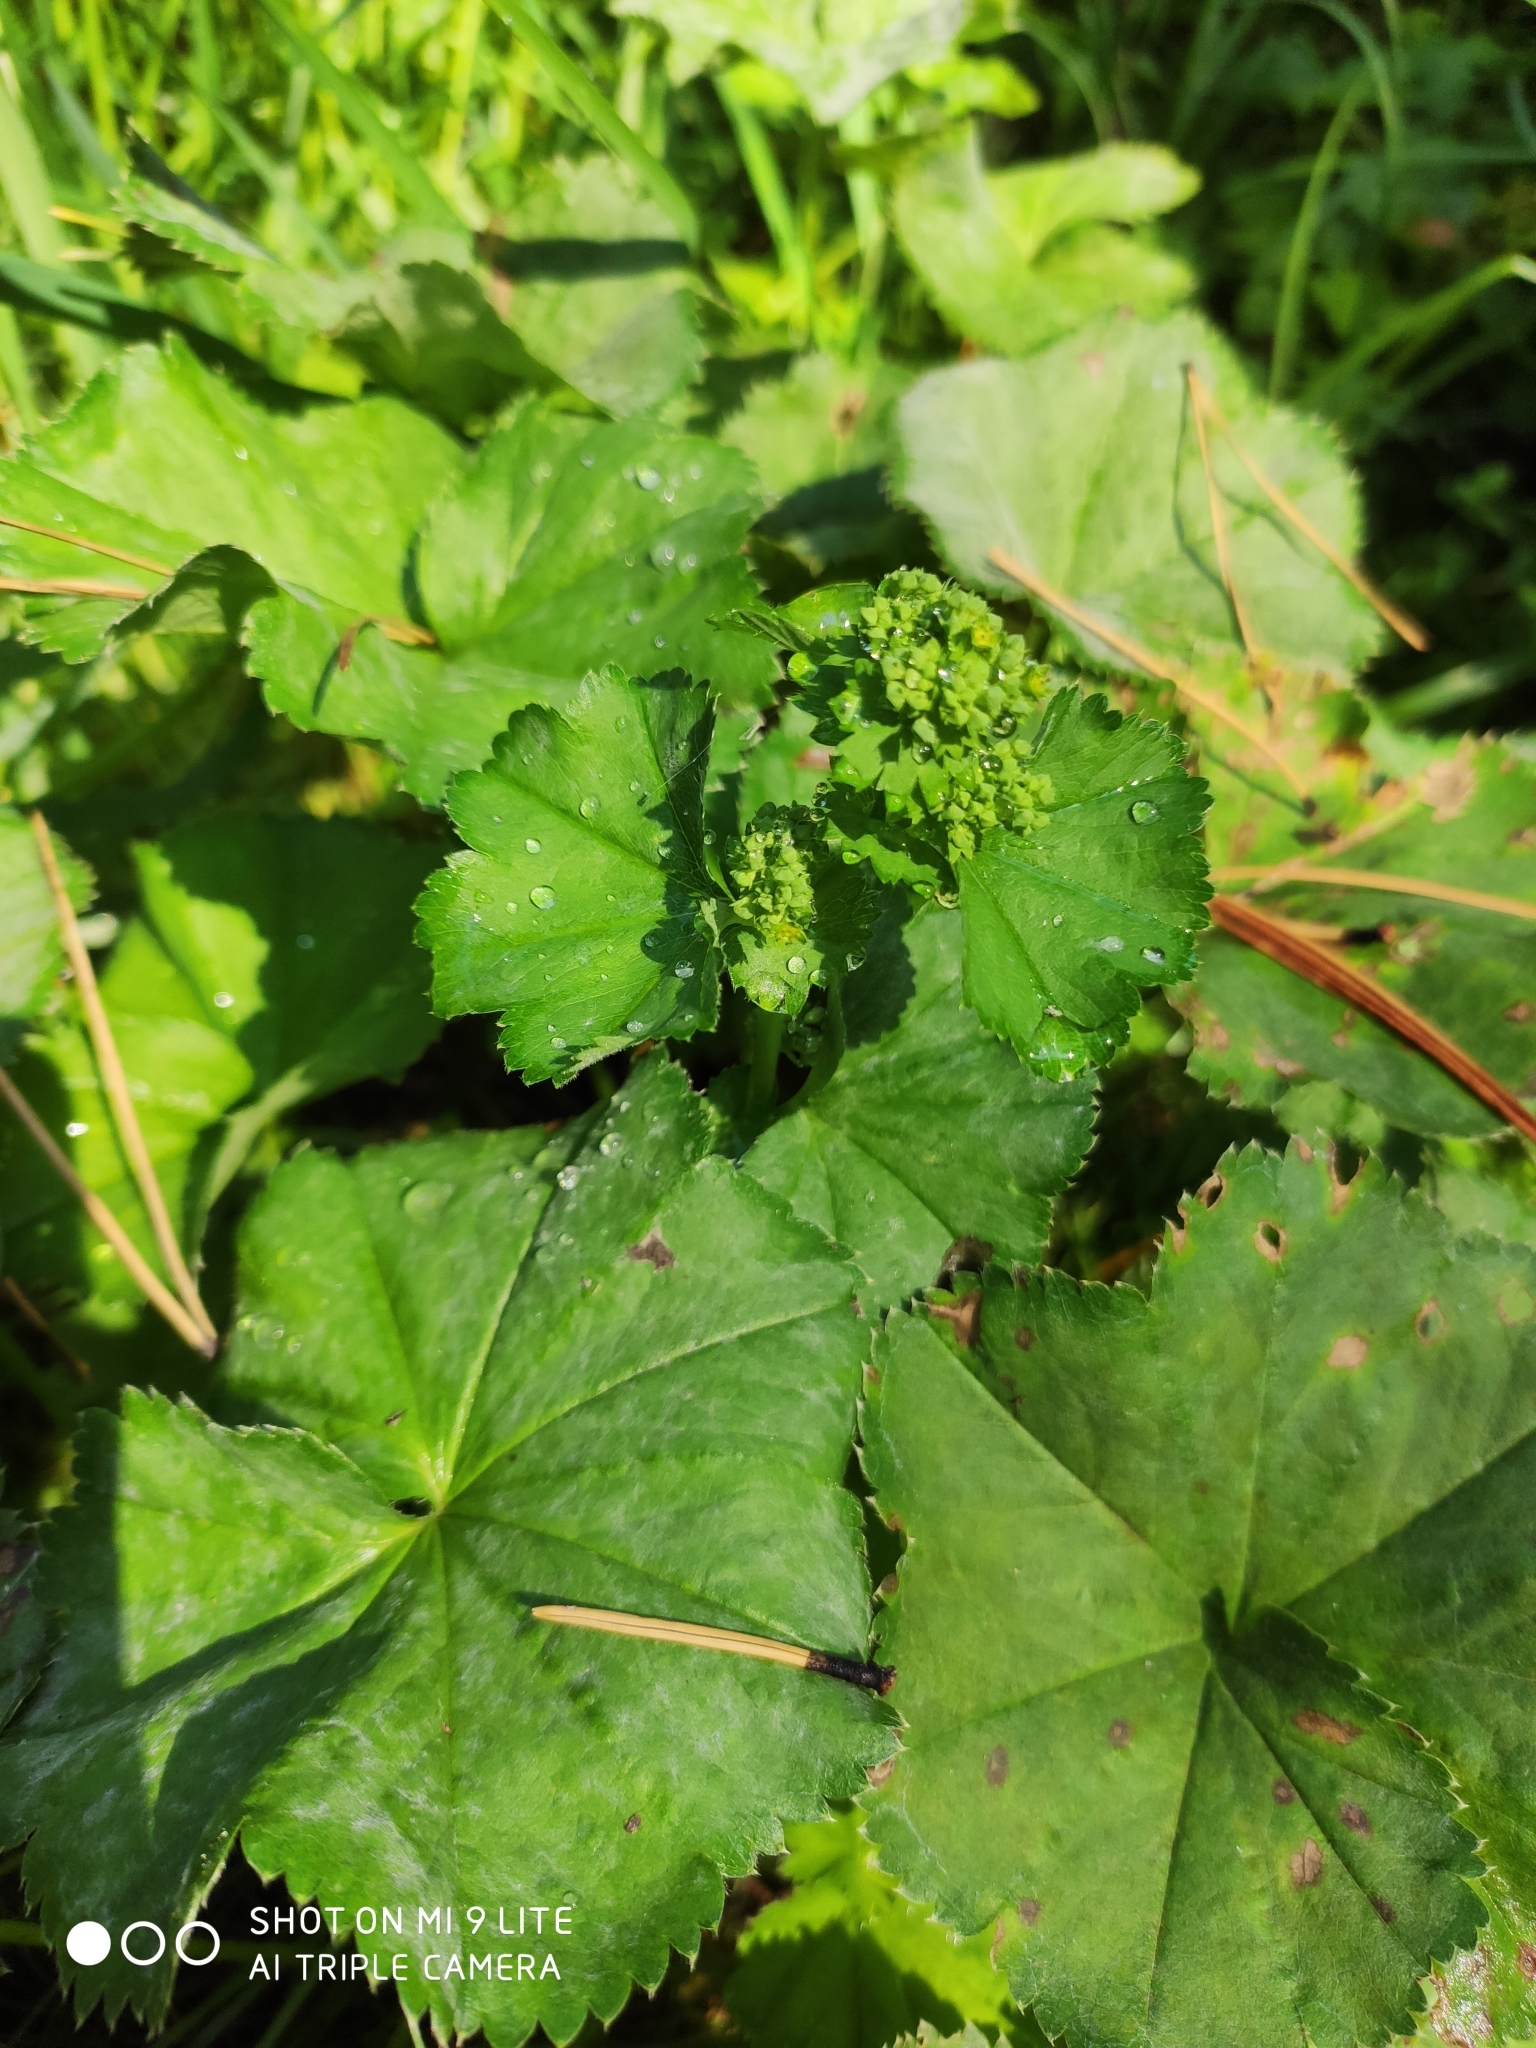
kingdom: Plantae
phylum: Tracheophyta
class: Magnoliopsida
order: Rosales
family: Rosaceae
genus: Alchemilla
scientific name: Alchemilla
